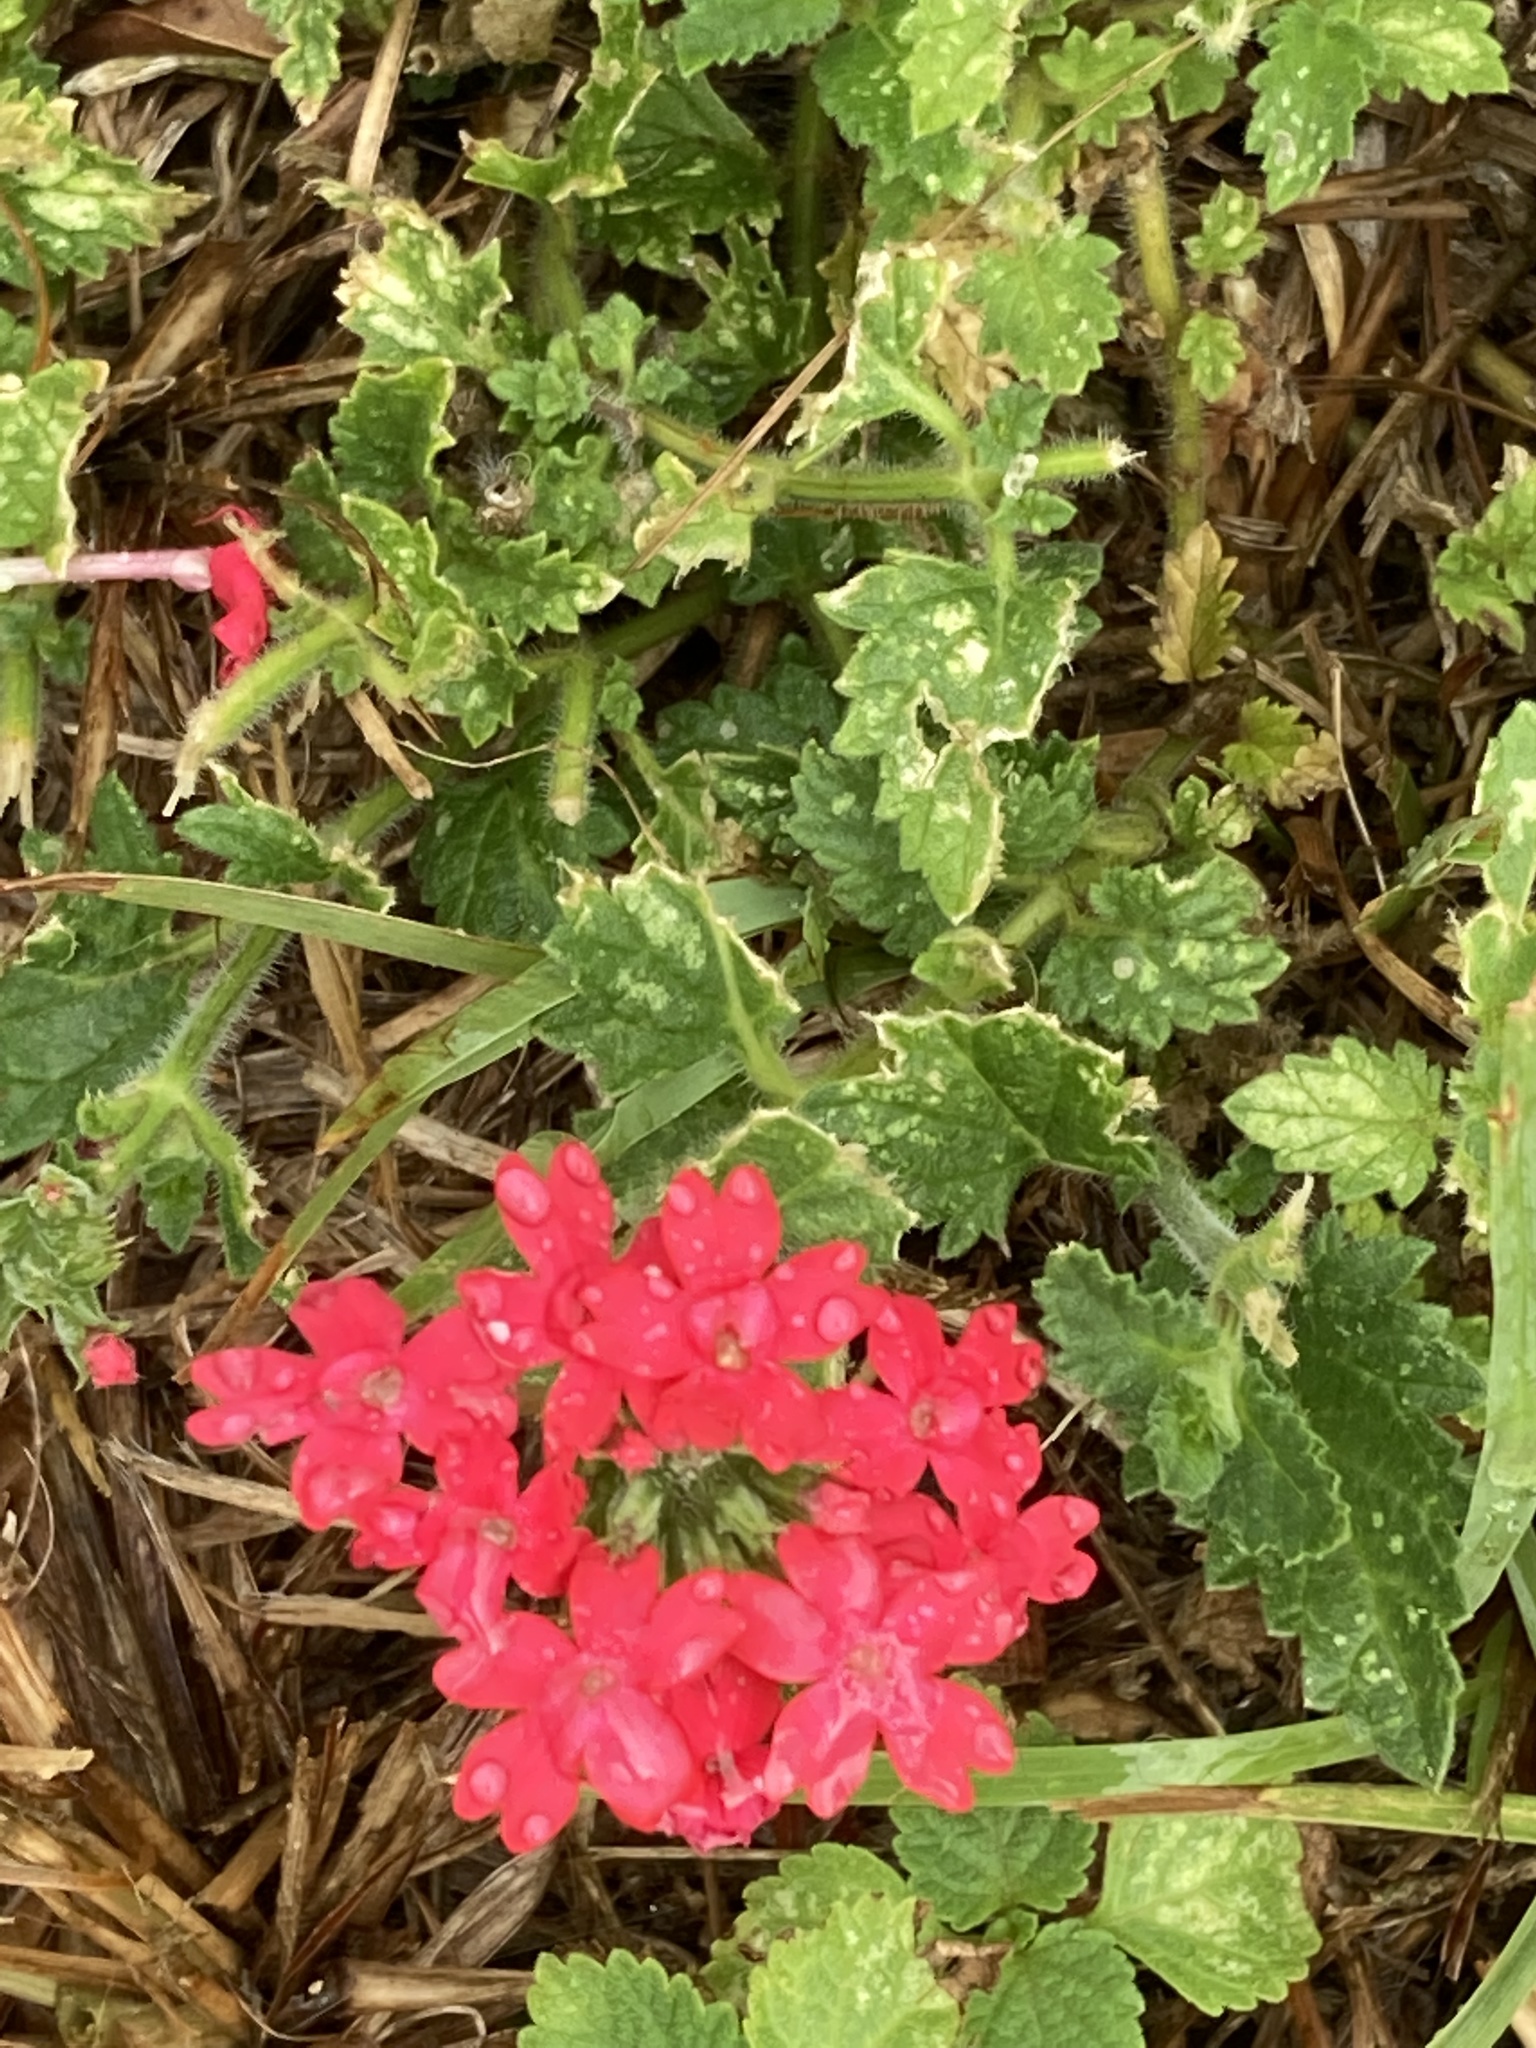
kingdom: Plantae
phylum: Tracheophyta
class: Magnoliopsida
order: Lamiales
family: Verbenaceae
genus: Verbena
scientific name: Verbena tweedieana
